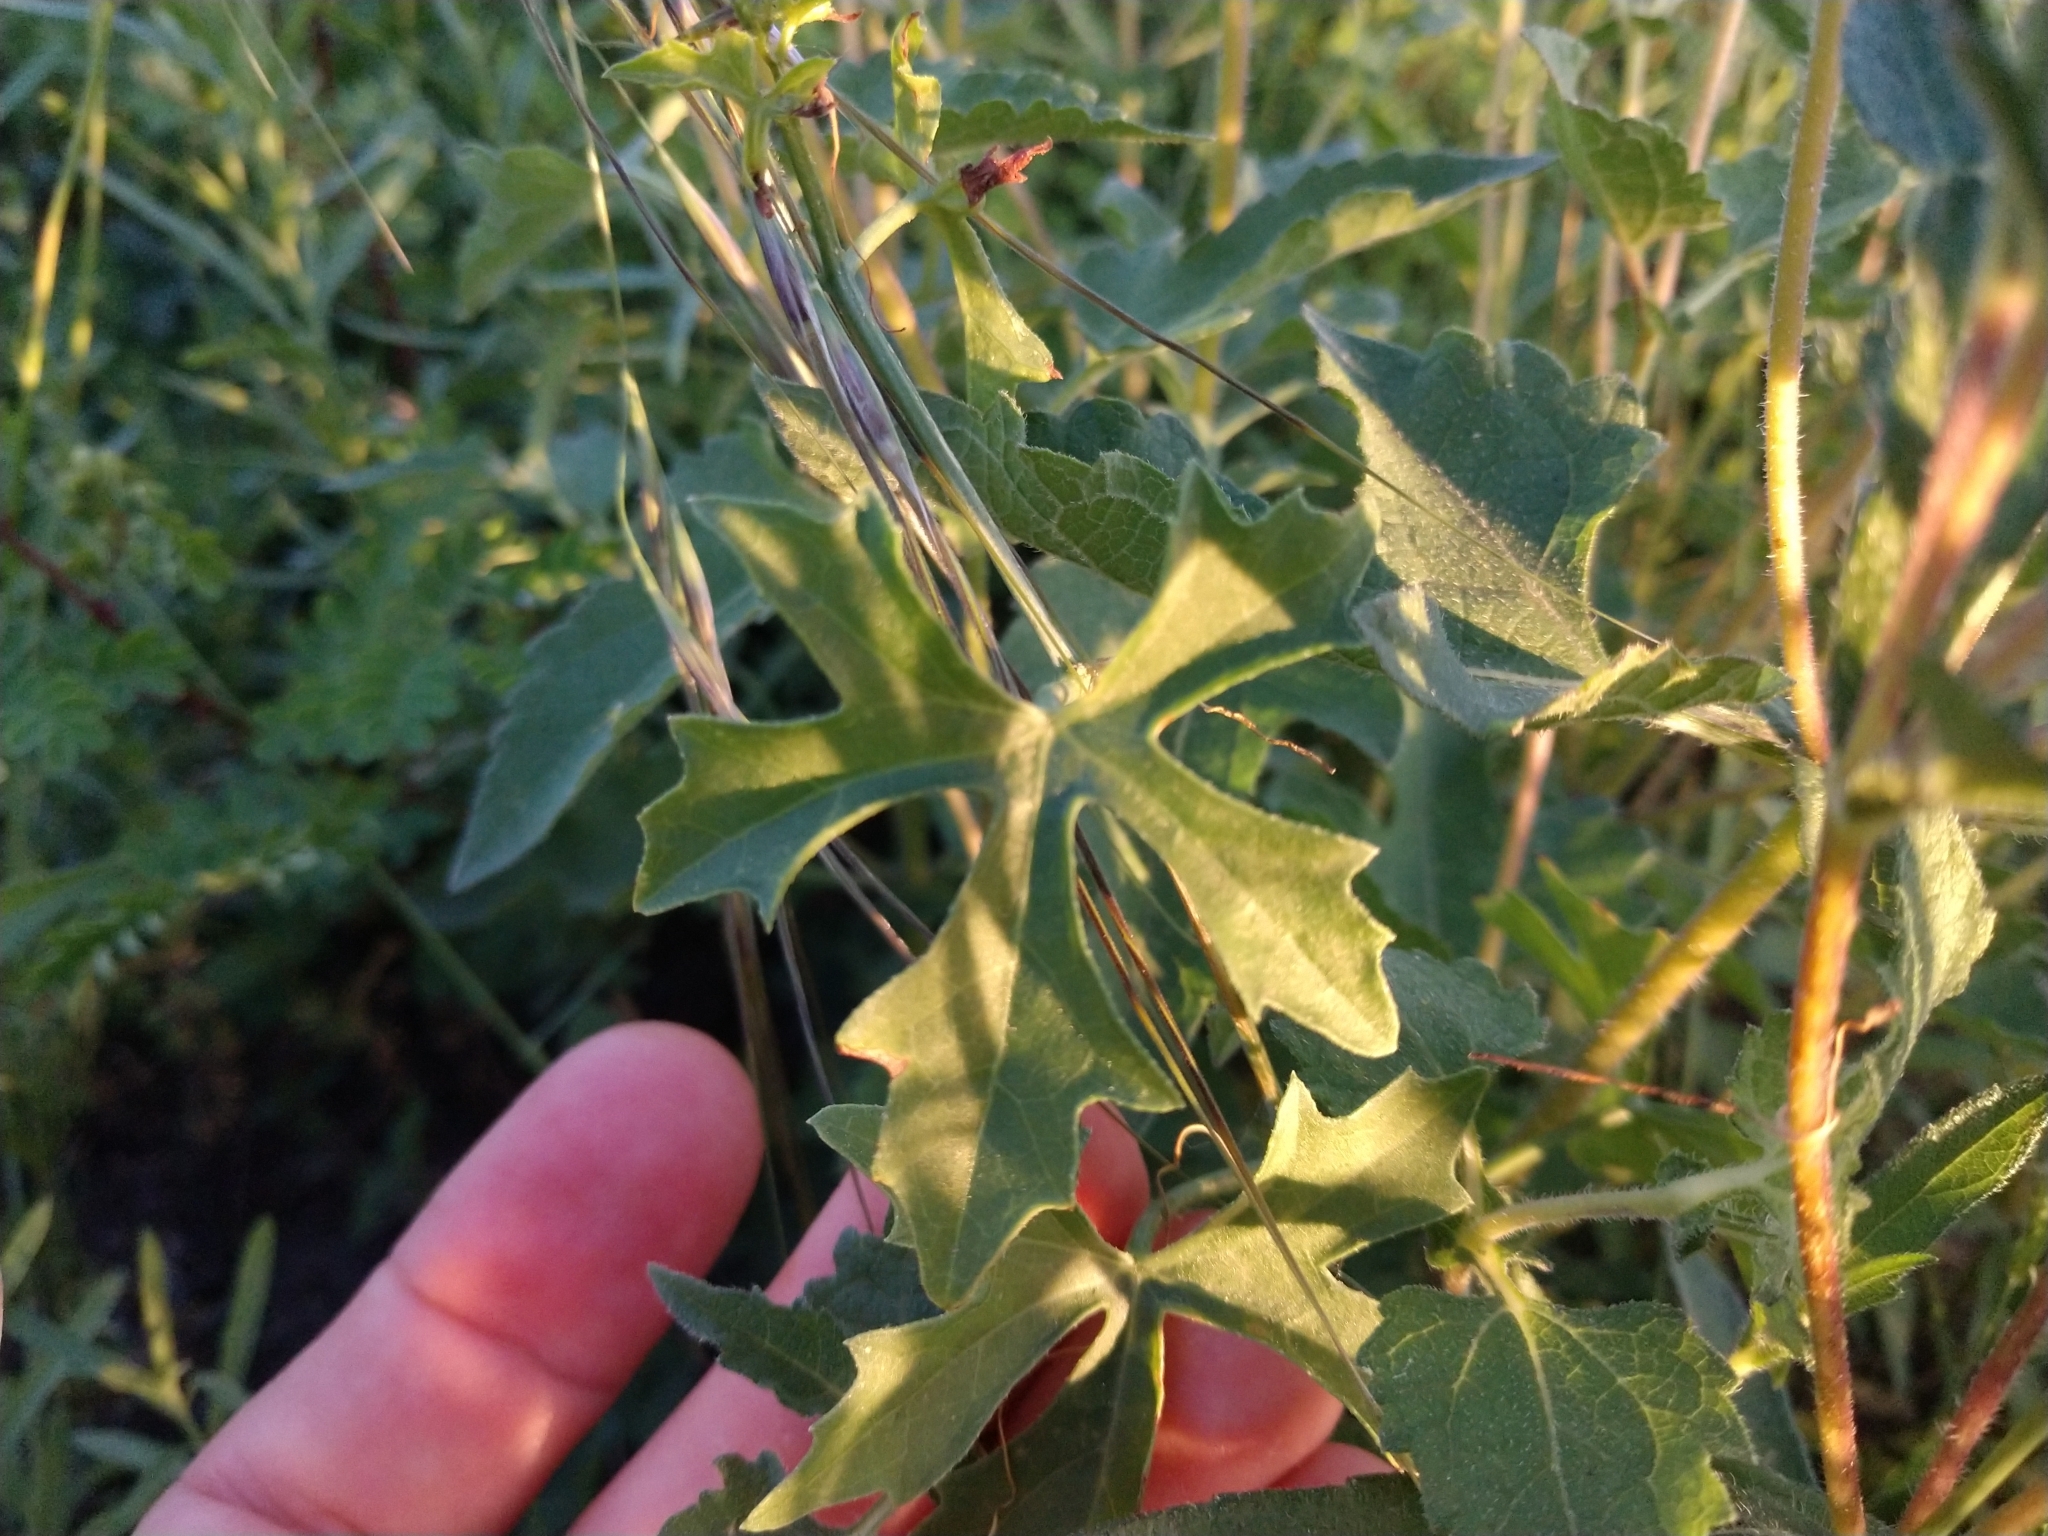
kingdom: Plantae
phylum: Tracheophyta
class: Magnoliopsida
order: Cucurbitales
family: Cucurbitaceae
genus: Ibervillea
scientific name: Ibervillea lindheimeri
